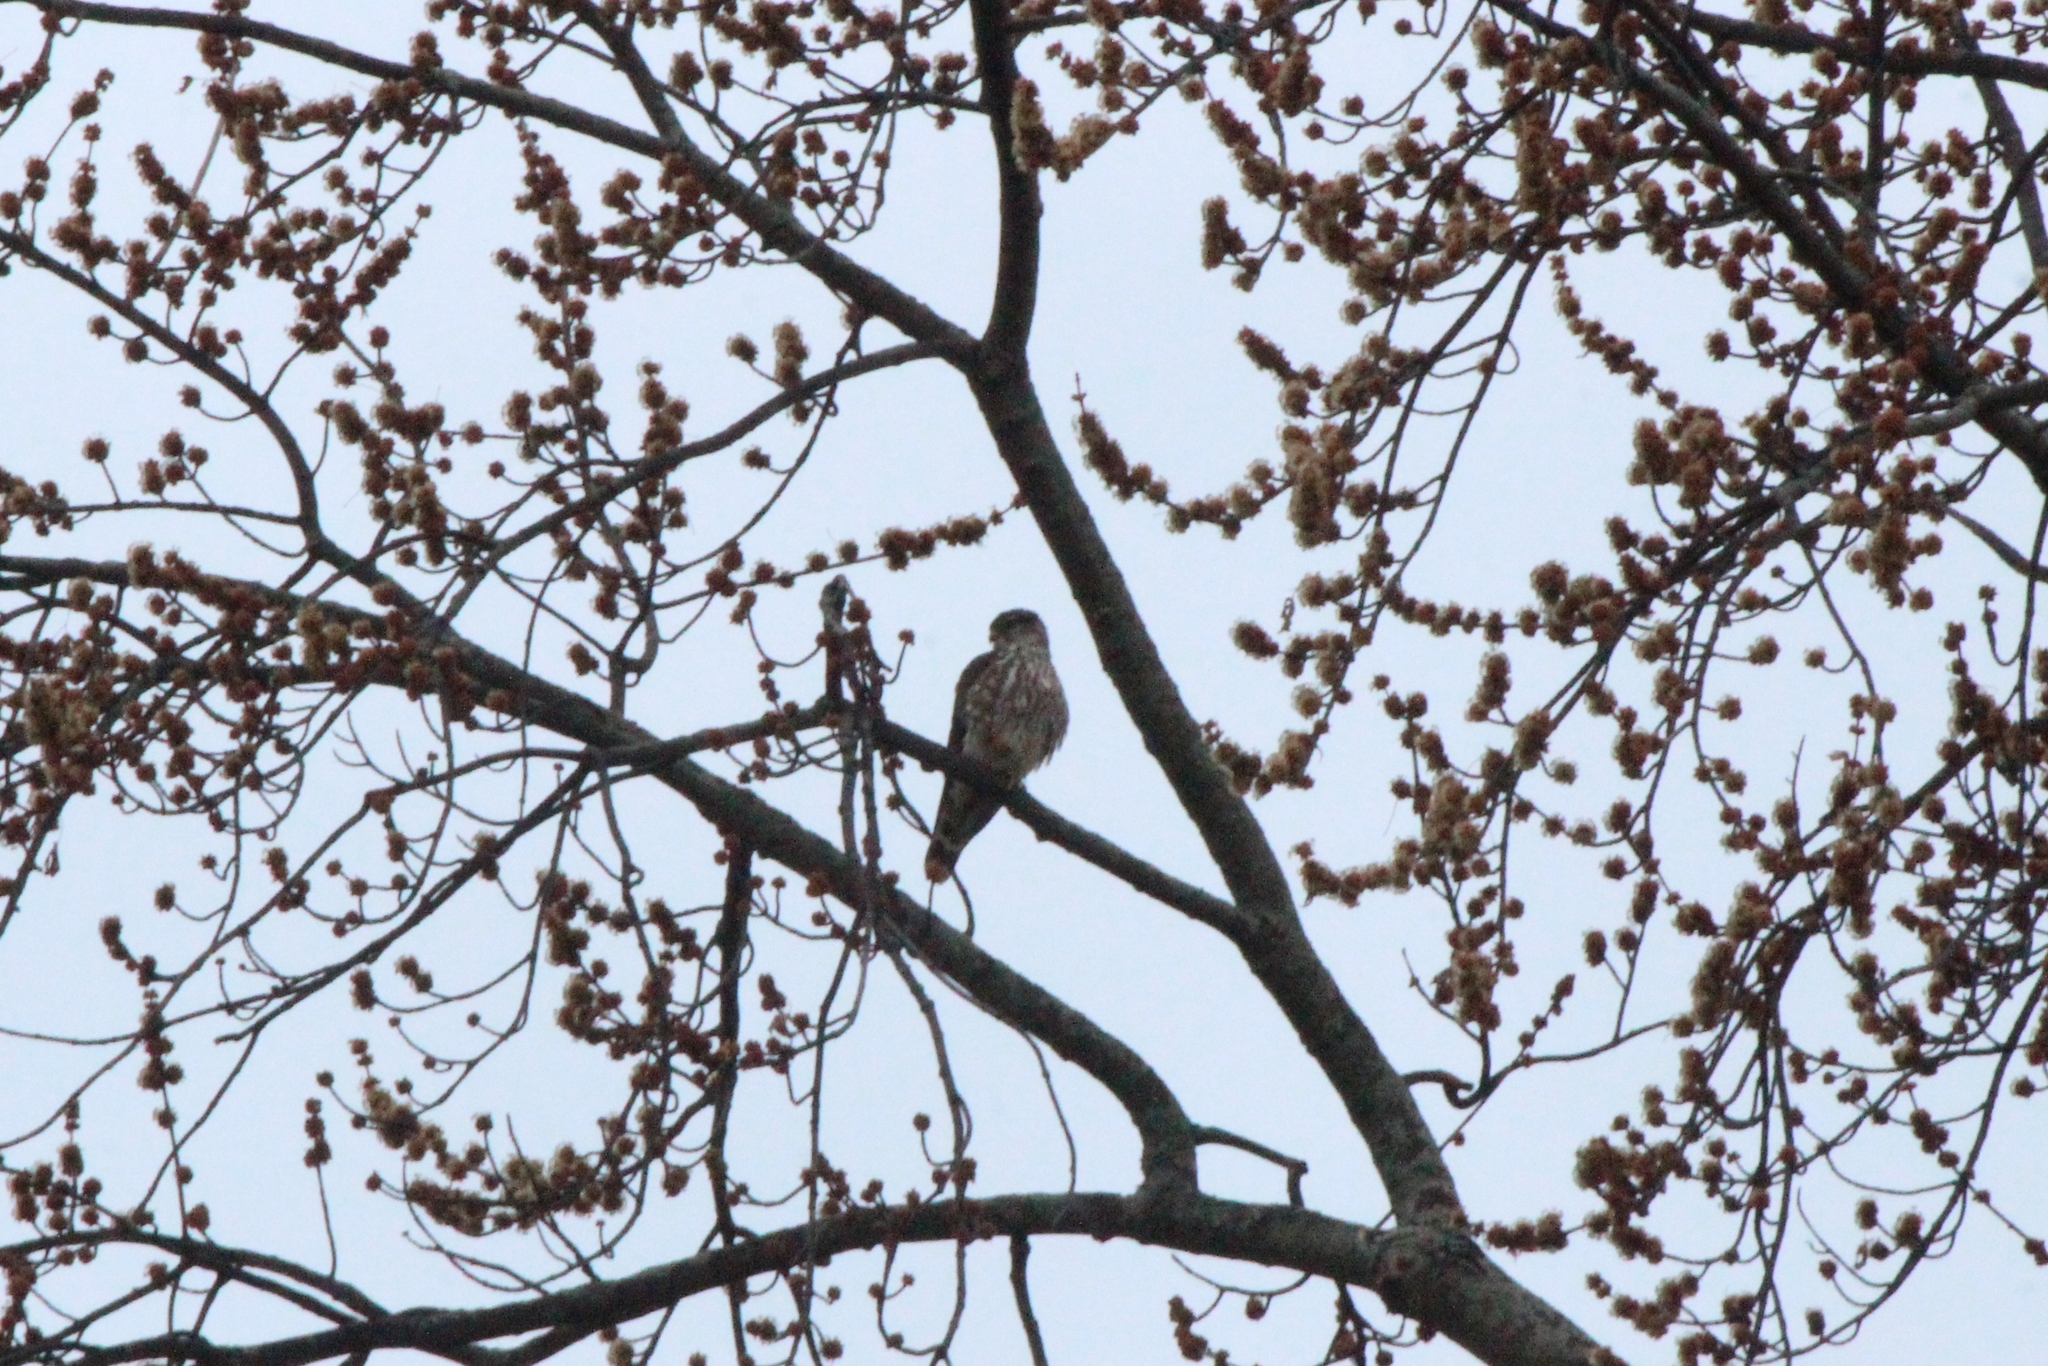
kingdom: Animalia
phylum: Chordata
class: Aves
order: Falconiformes
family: Falconidae
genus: Falco
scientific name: Falco columbarius
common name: Merlin
